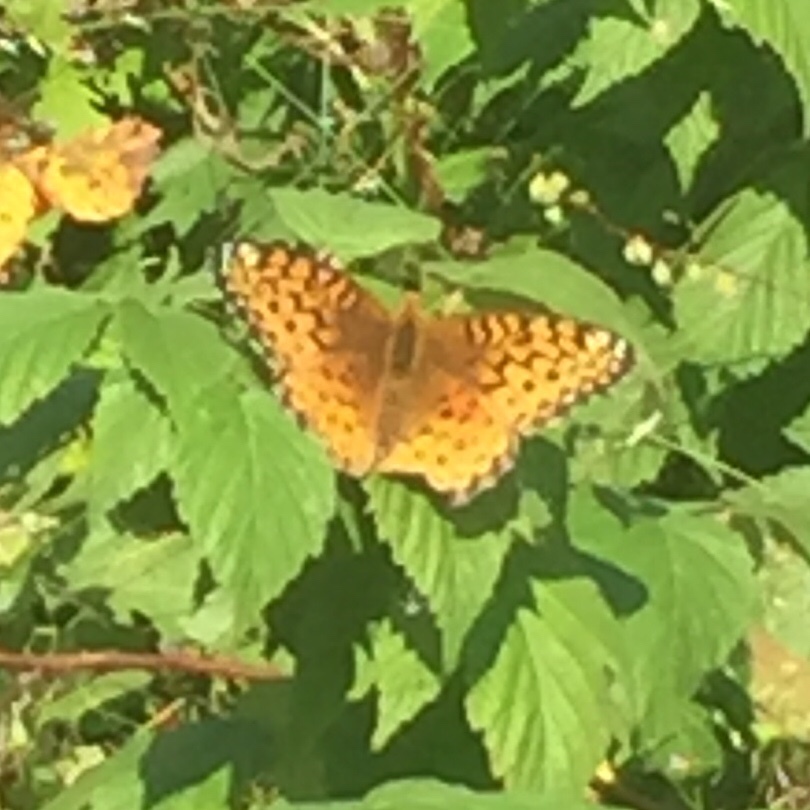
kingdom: Animalia
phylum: Arthropoda
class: Insecta
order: Lepidoptera
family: Nymphalidae
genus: Speyeria
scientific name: Speyeria aphrodite
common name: Aphrodite friitllary
